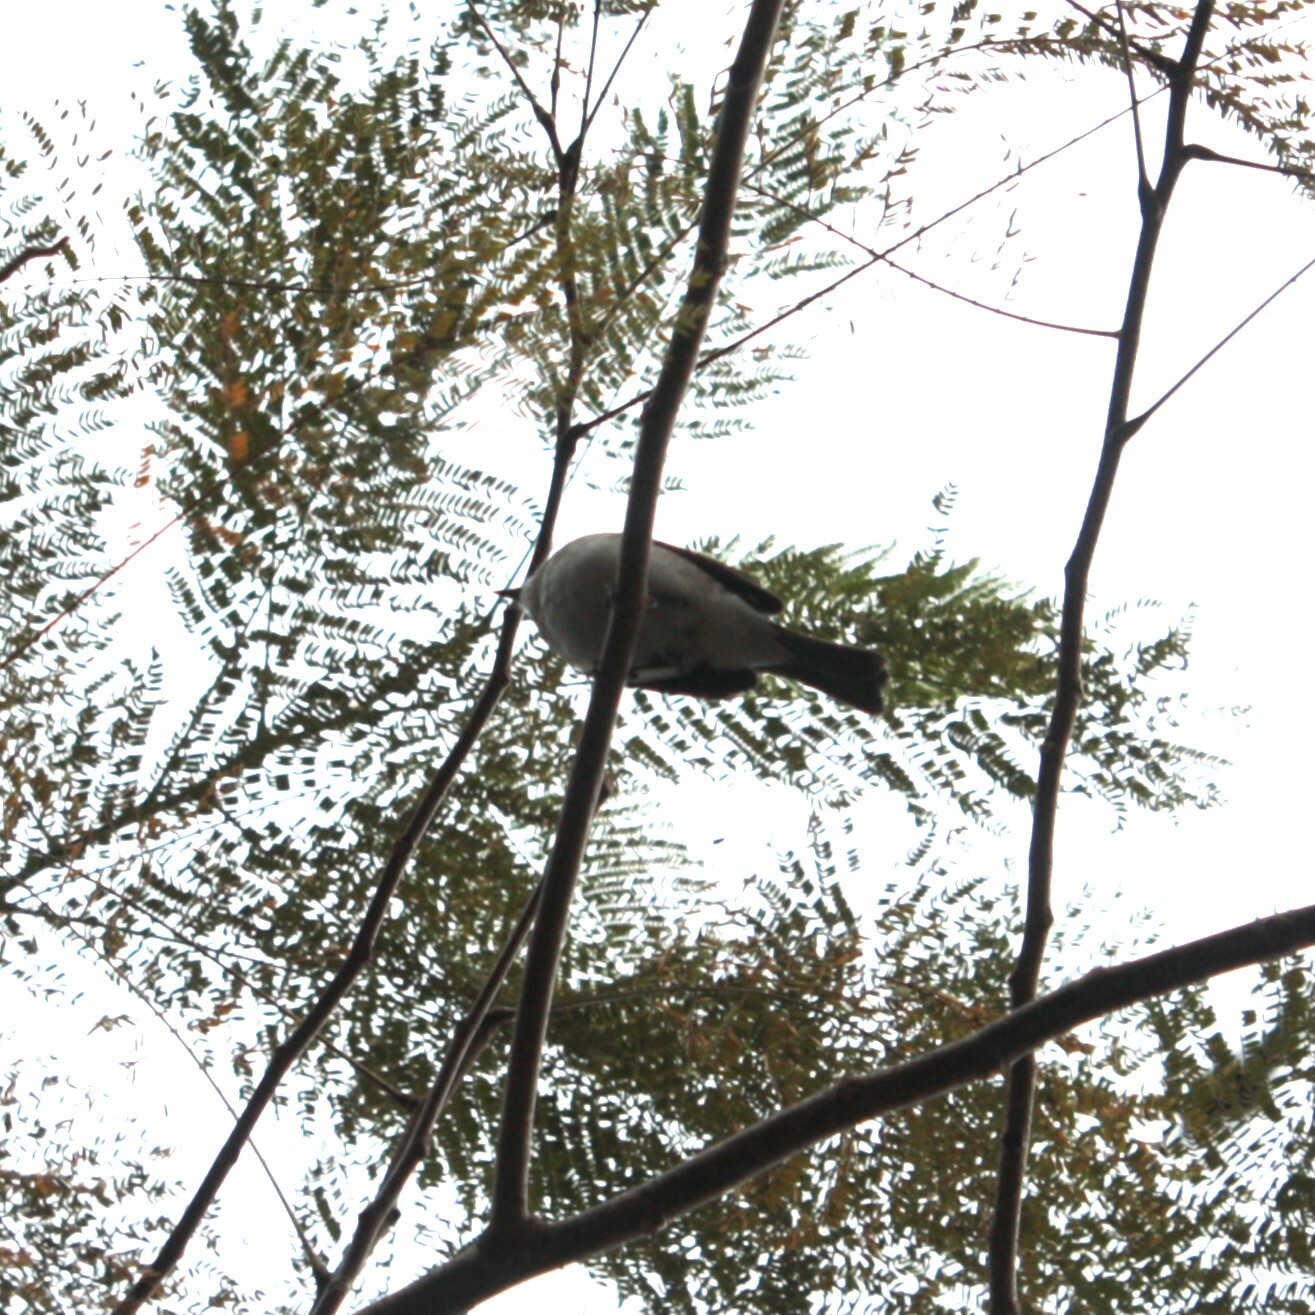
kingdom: Animalia
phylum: Chordata
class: Aves
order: Passeriformes
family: Pycnonotidae
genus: Pycnonotus
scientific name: Pycnonotus sinensis
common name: Light-vented bulbul
